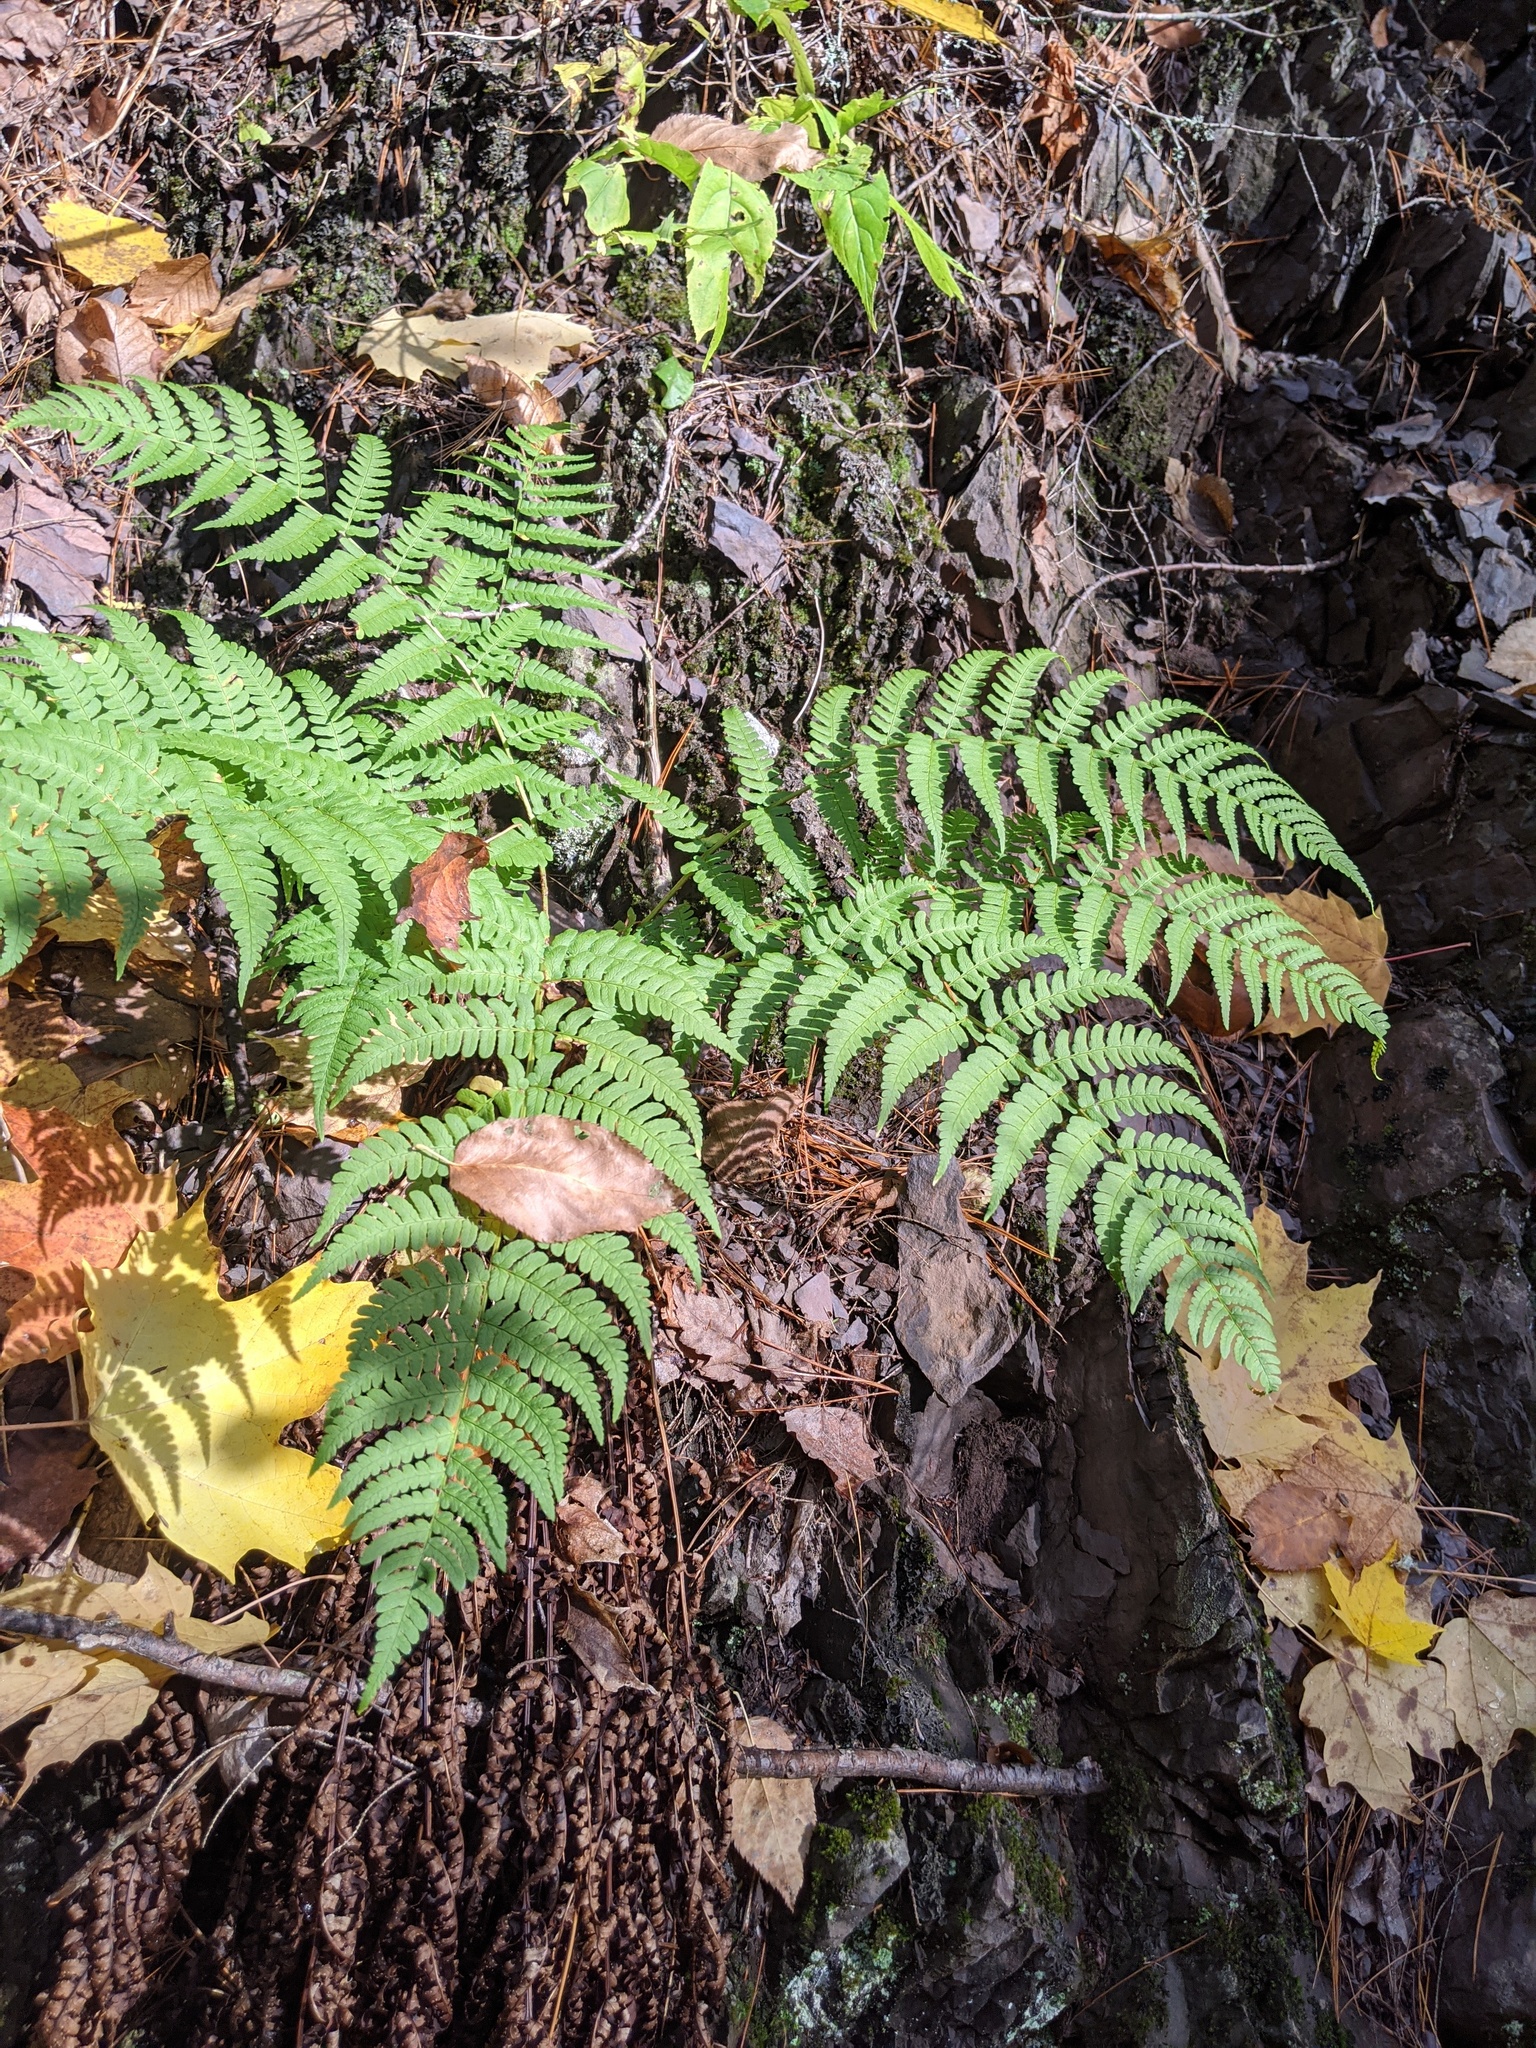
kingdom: Plantae
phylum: Tracheophyta
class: Polypodiopsida
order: Polypodiales
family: Dryopteridaceae
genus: Dryopteris
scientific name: Dryopteris marginalis
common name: Marginal wood fern
